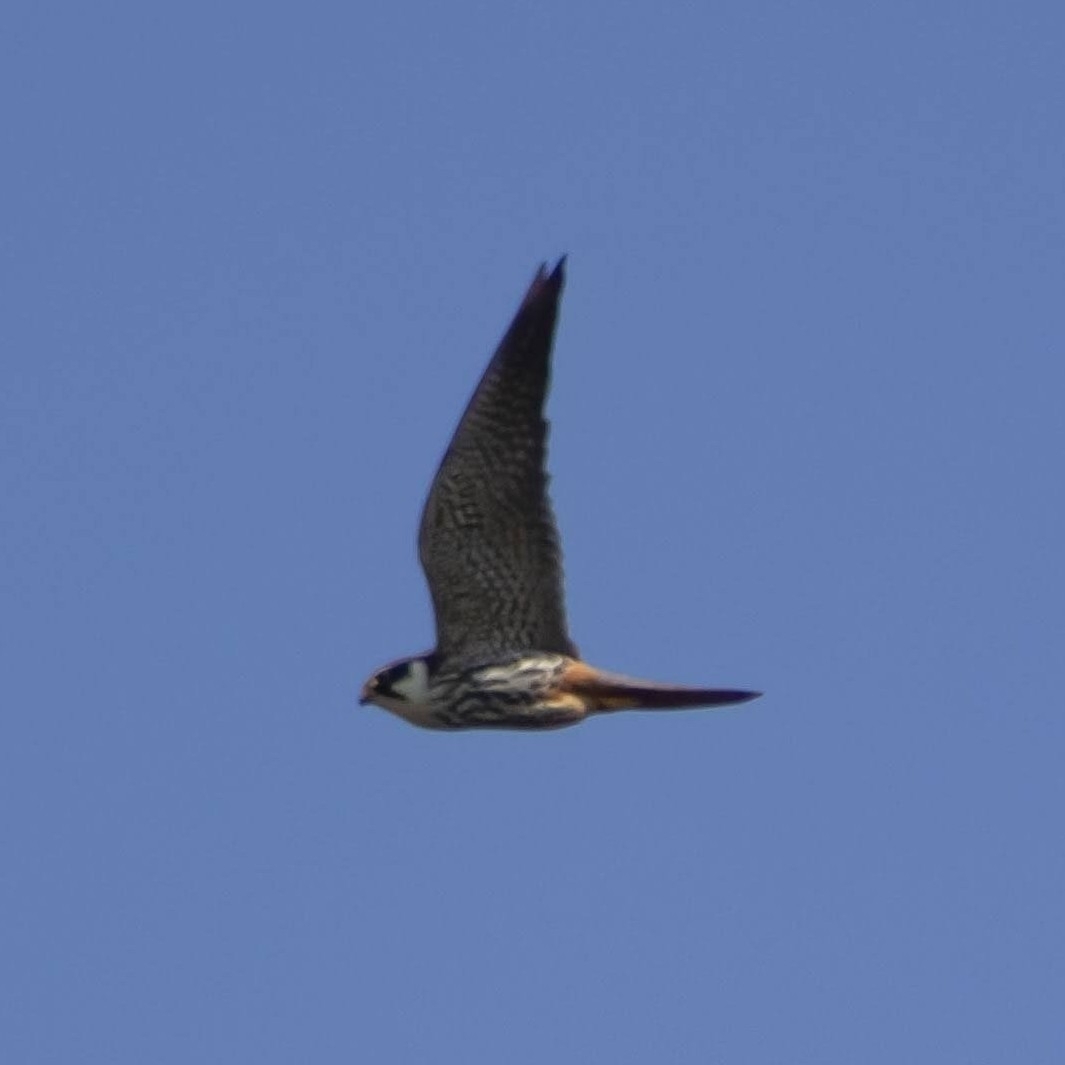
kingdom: Animalia
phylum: Chordata
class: Aves
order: Falconiformes
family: Falconidae
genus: Falco
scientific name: Falco subbuteo
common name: Eurasian hobby
